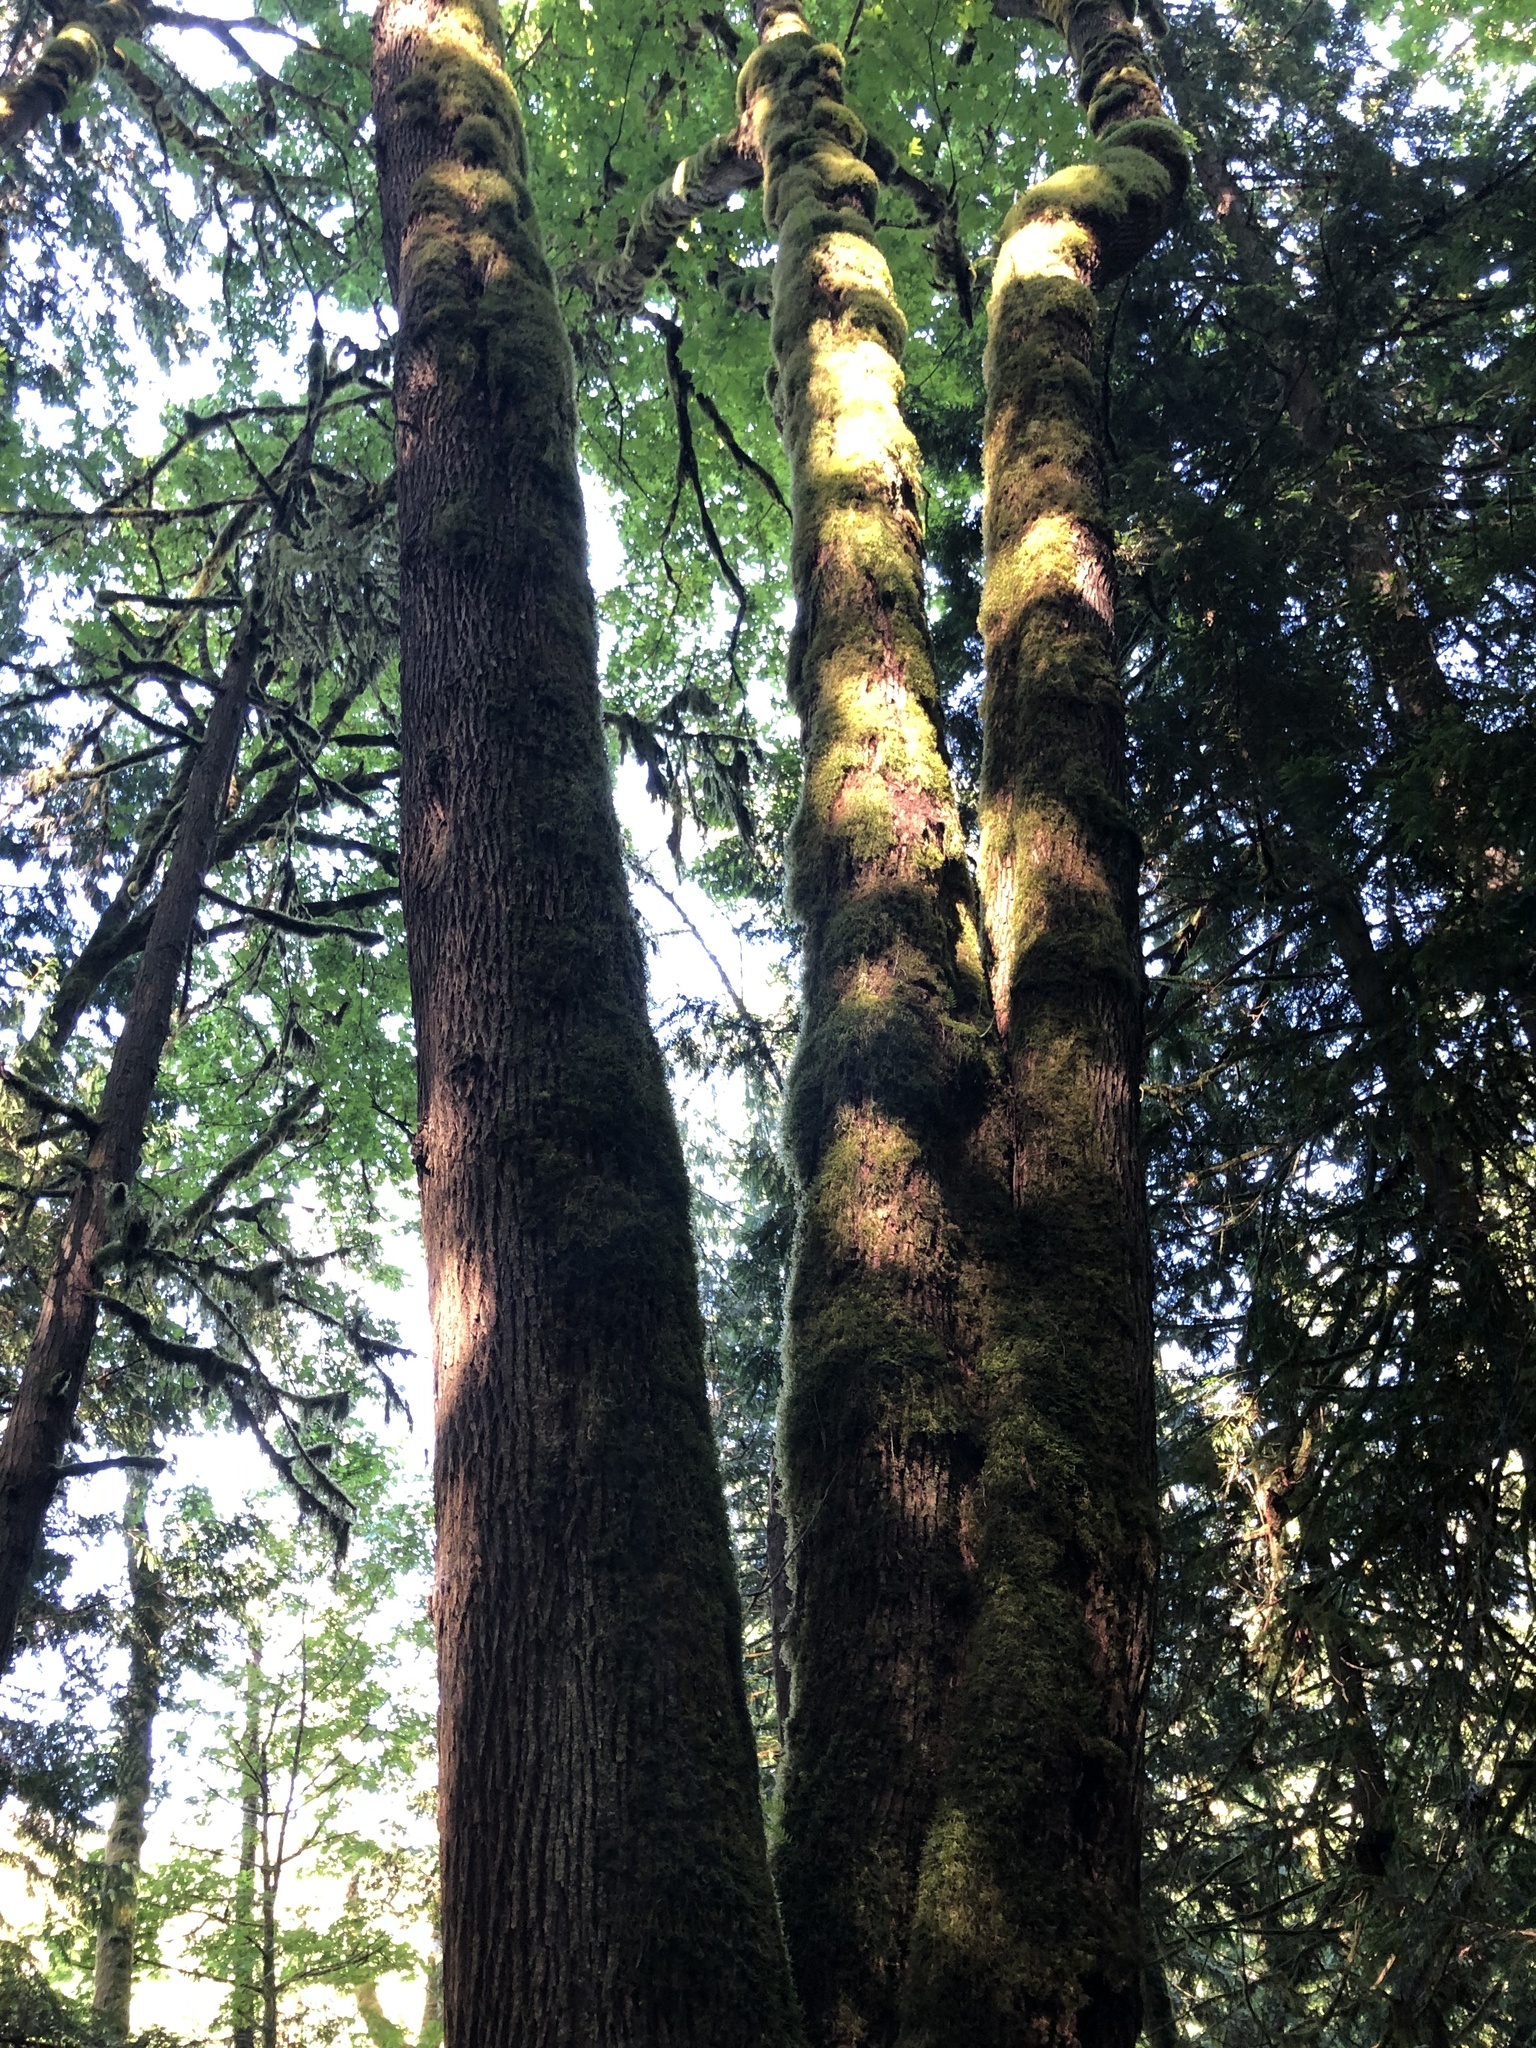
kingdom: Plantae
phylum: Tracheophyta
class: Magnoliopsida
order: Sapindales
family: Sapindaceae
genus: Acer
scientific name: Acer macrophyllum
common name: Oregon maple
